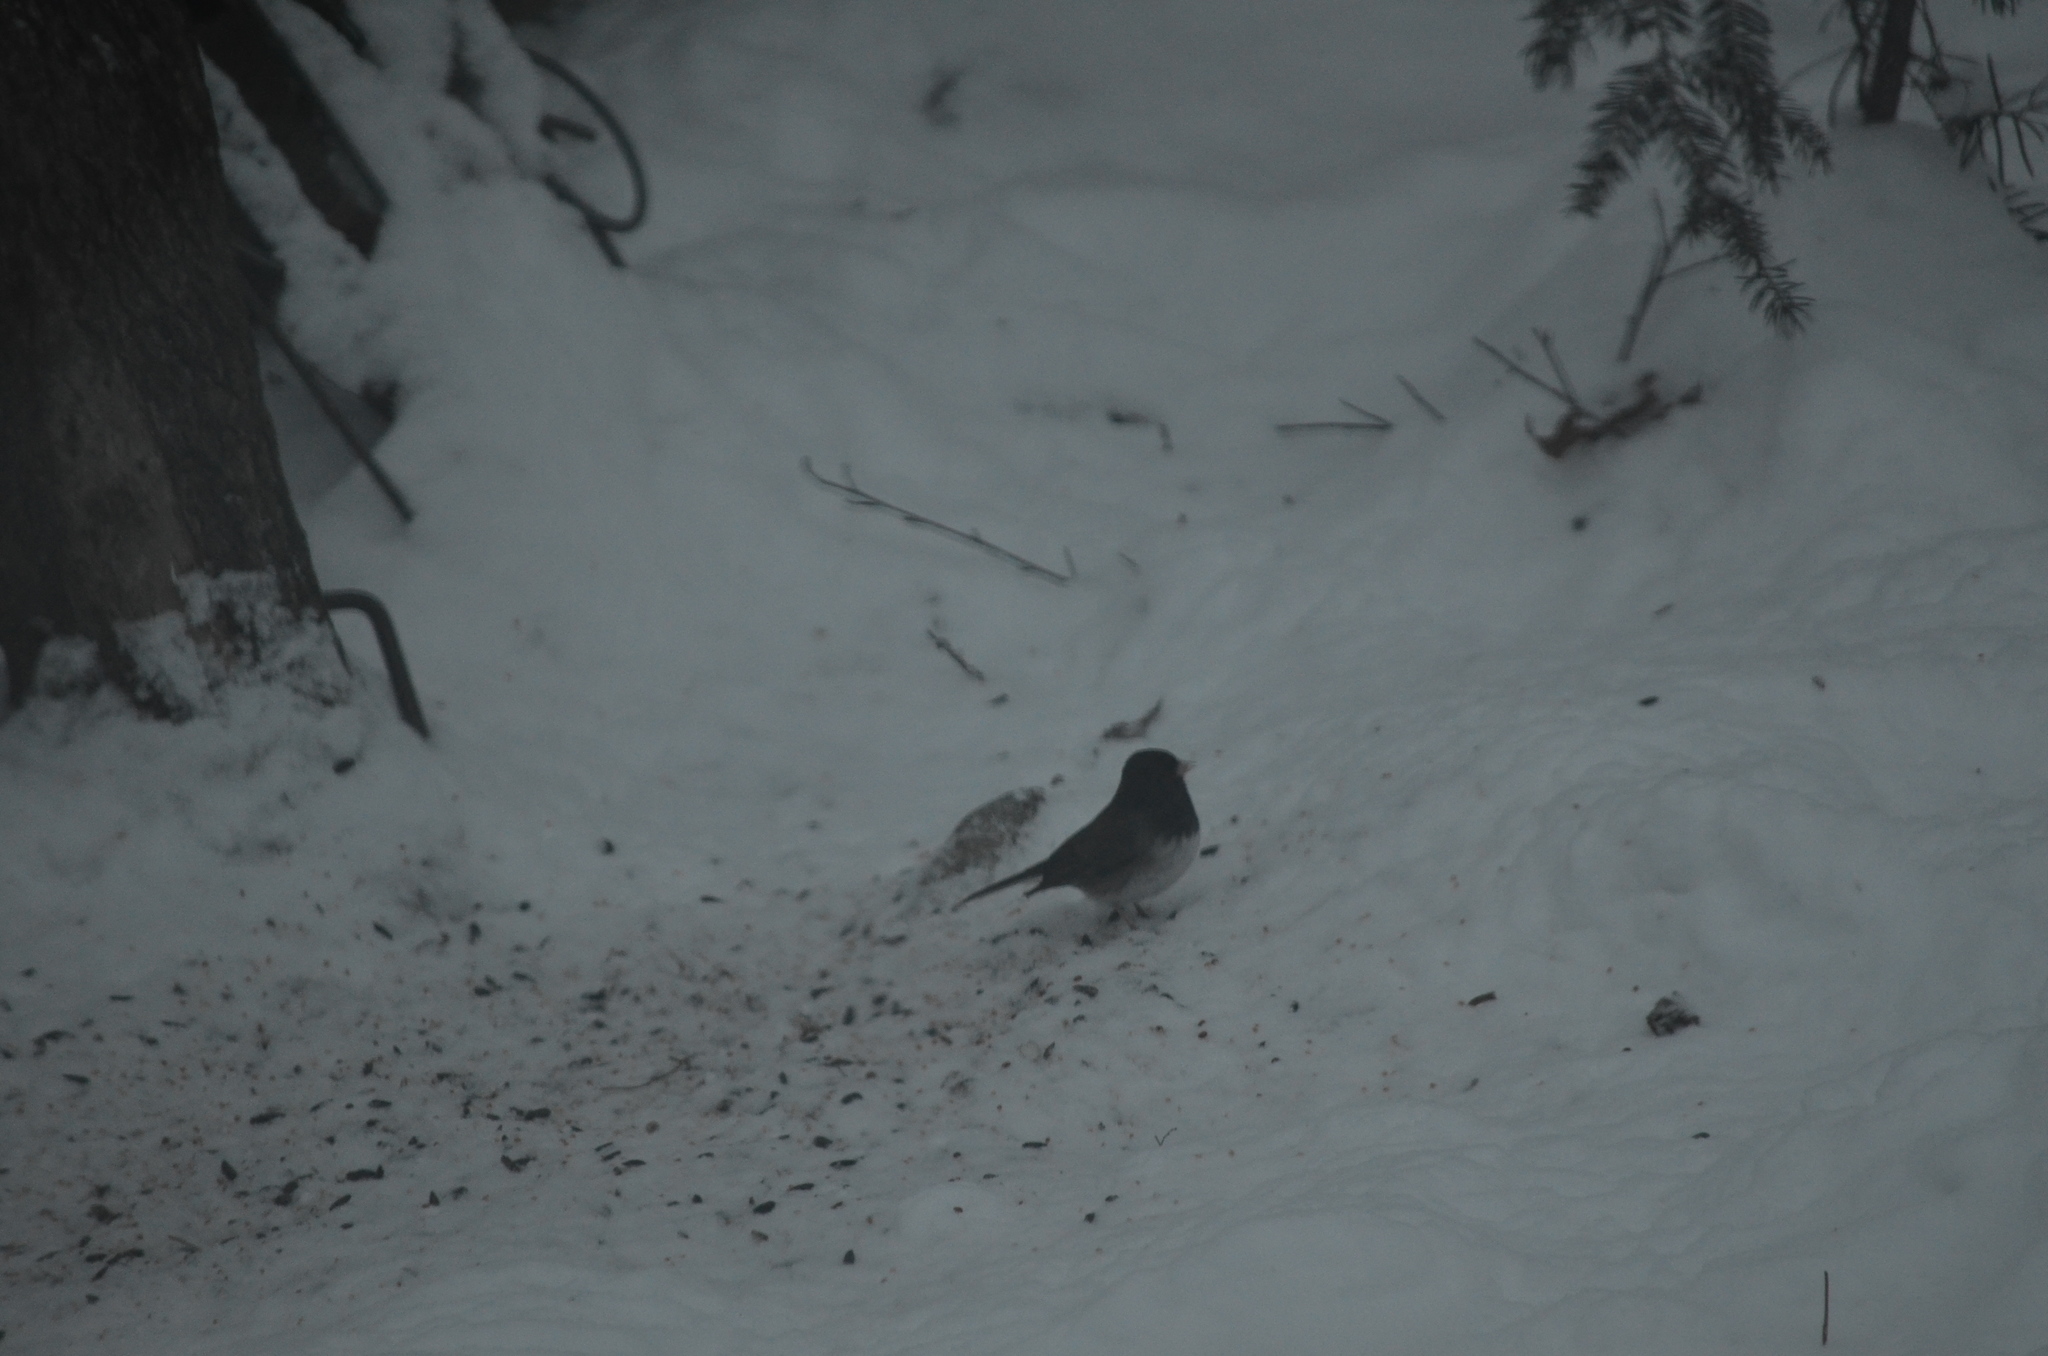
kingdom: Animalia
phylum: Chordata
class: Aves
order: Passeriformes
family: Passerellidae
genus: Junco
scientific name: Junco hyemalis
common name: Dark-eyed junco
